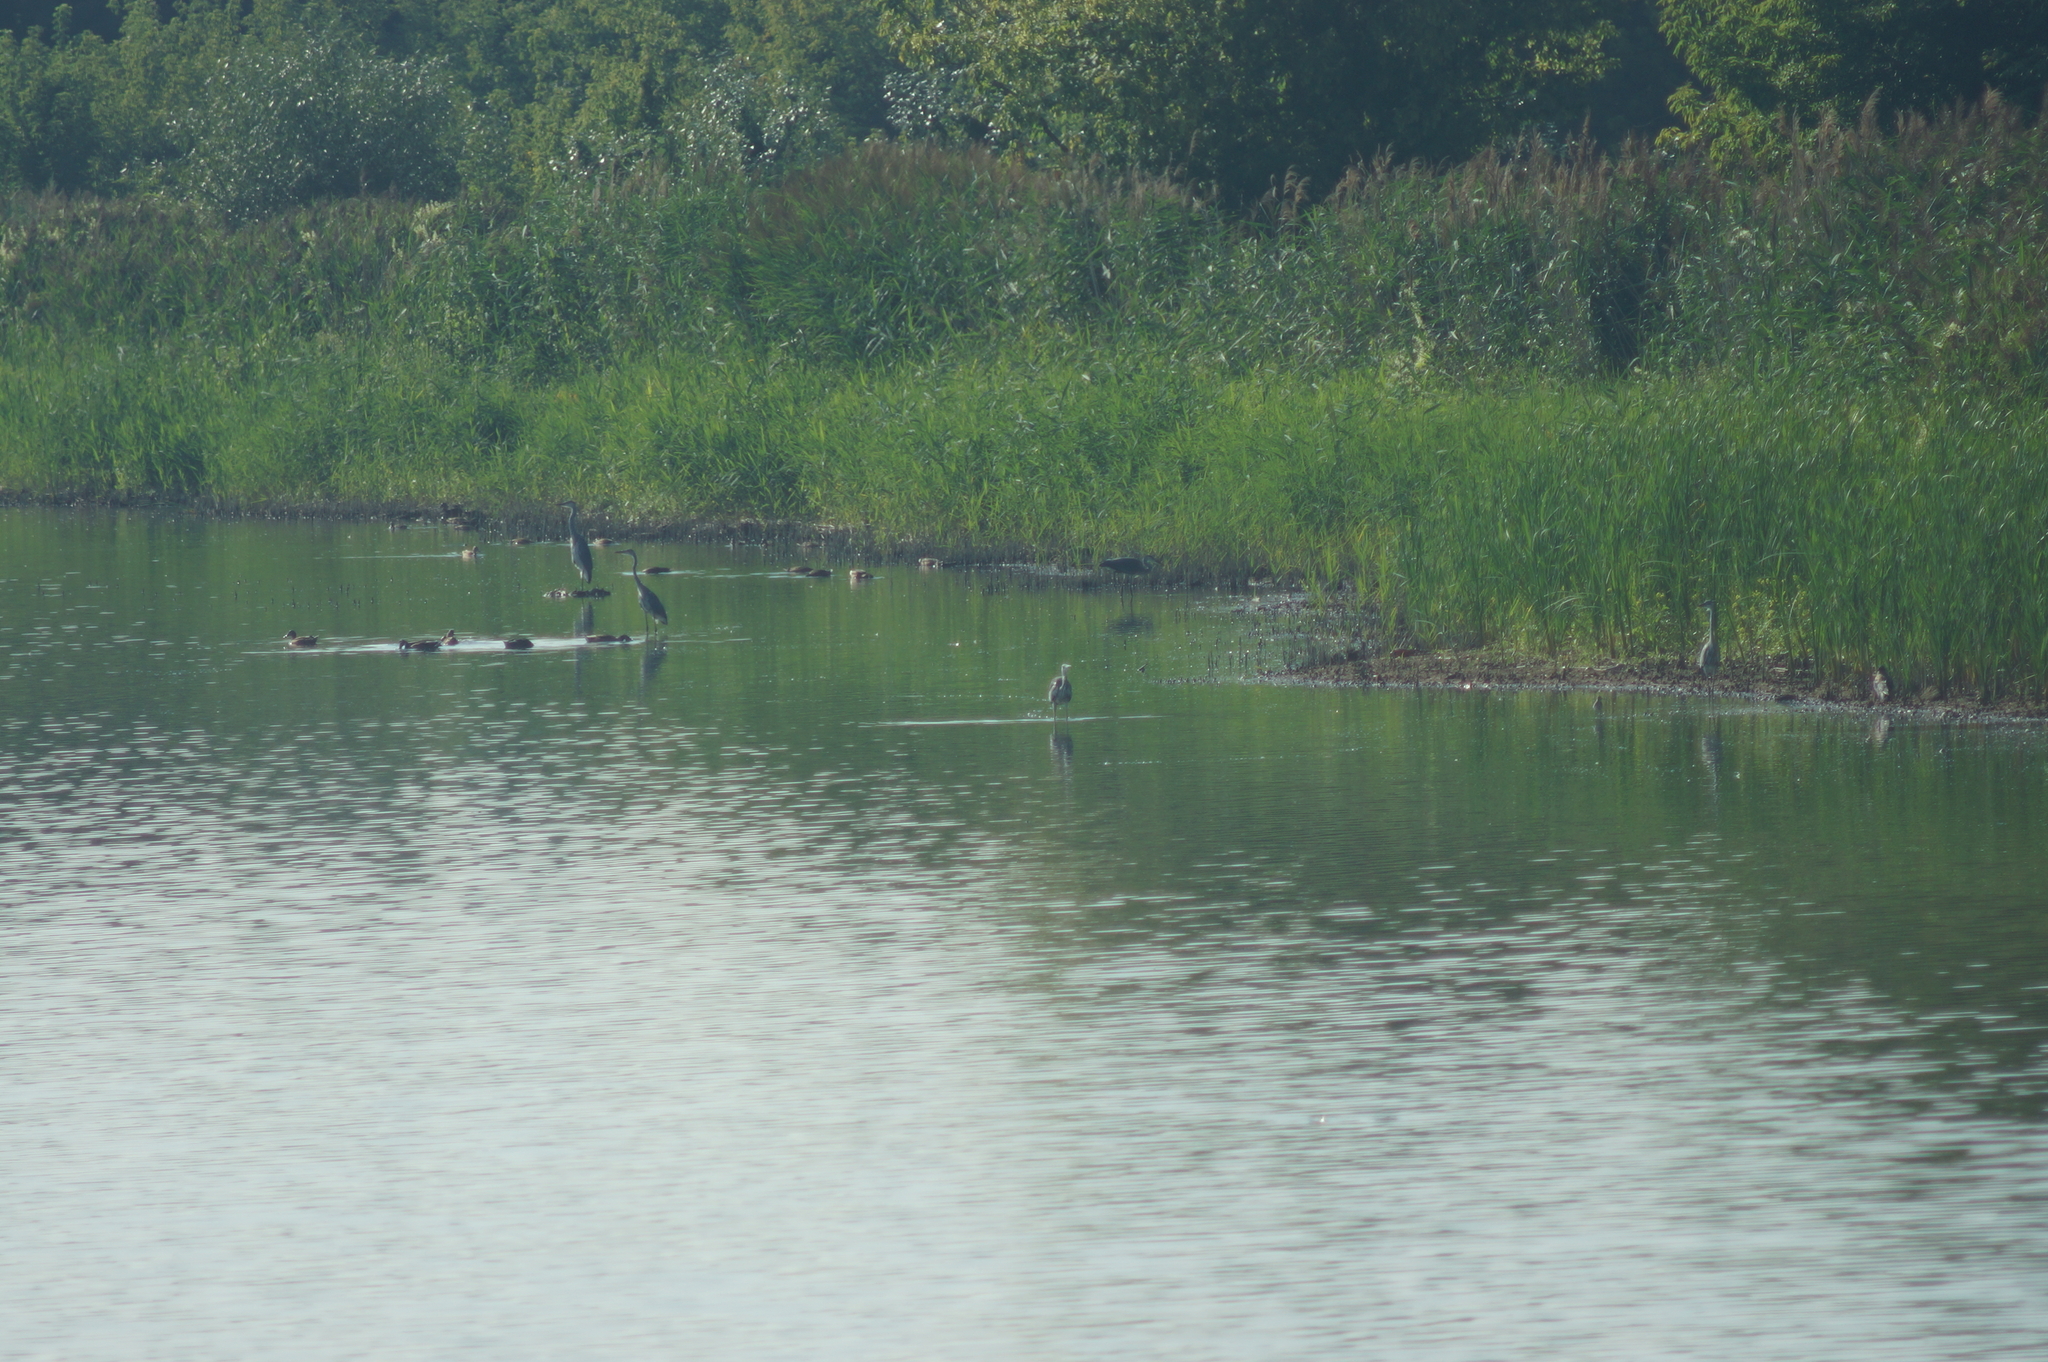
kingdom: Animalia
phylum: Chordata
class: Aves
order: Pelecaniformes
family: Ardeidae
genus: Ardea
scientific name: Ardea cinerea
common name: Grey heron
